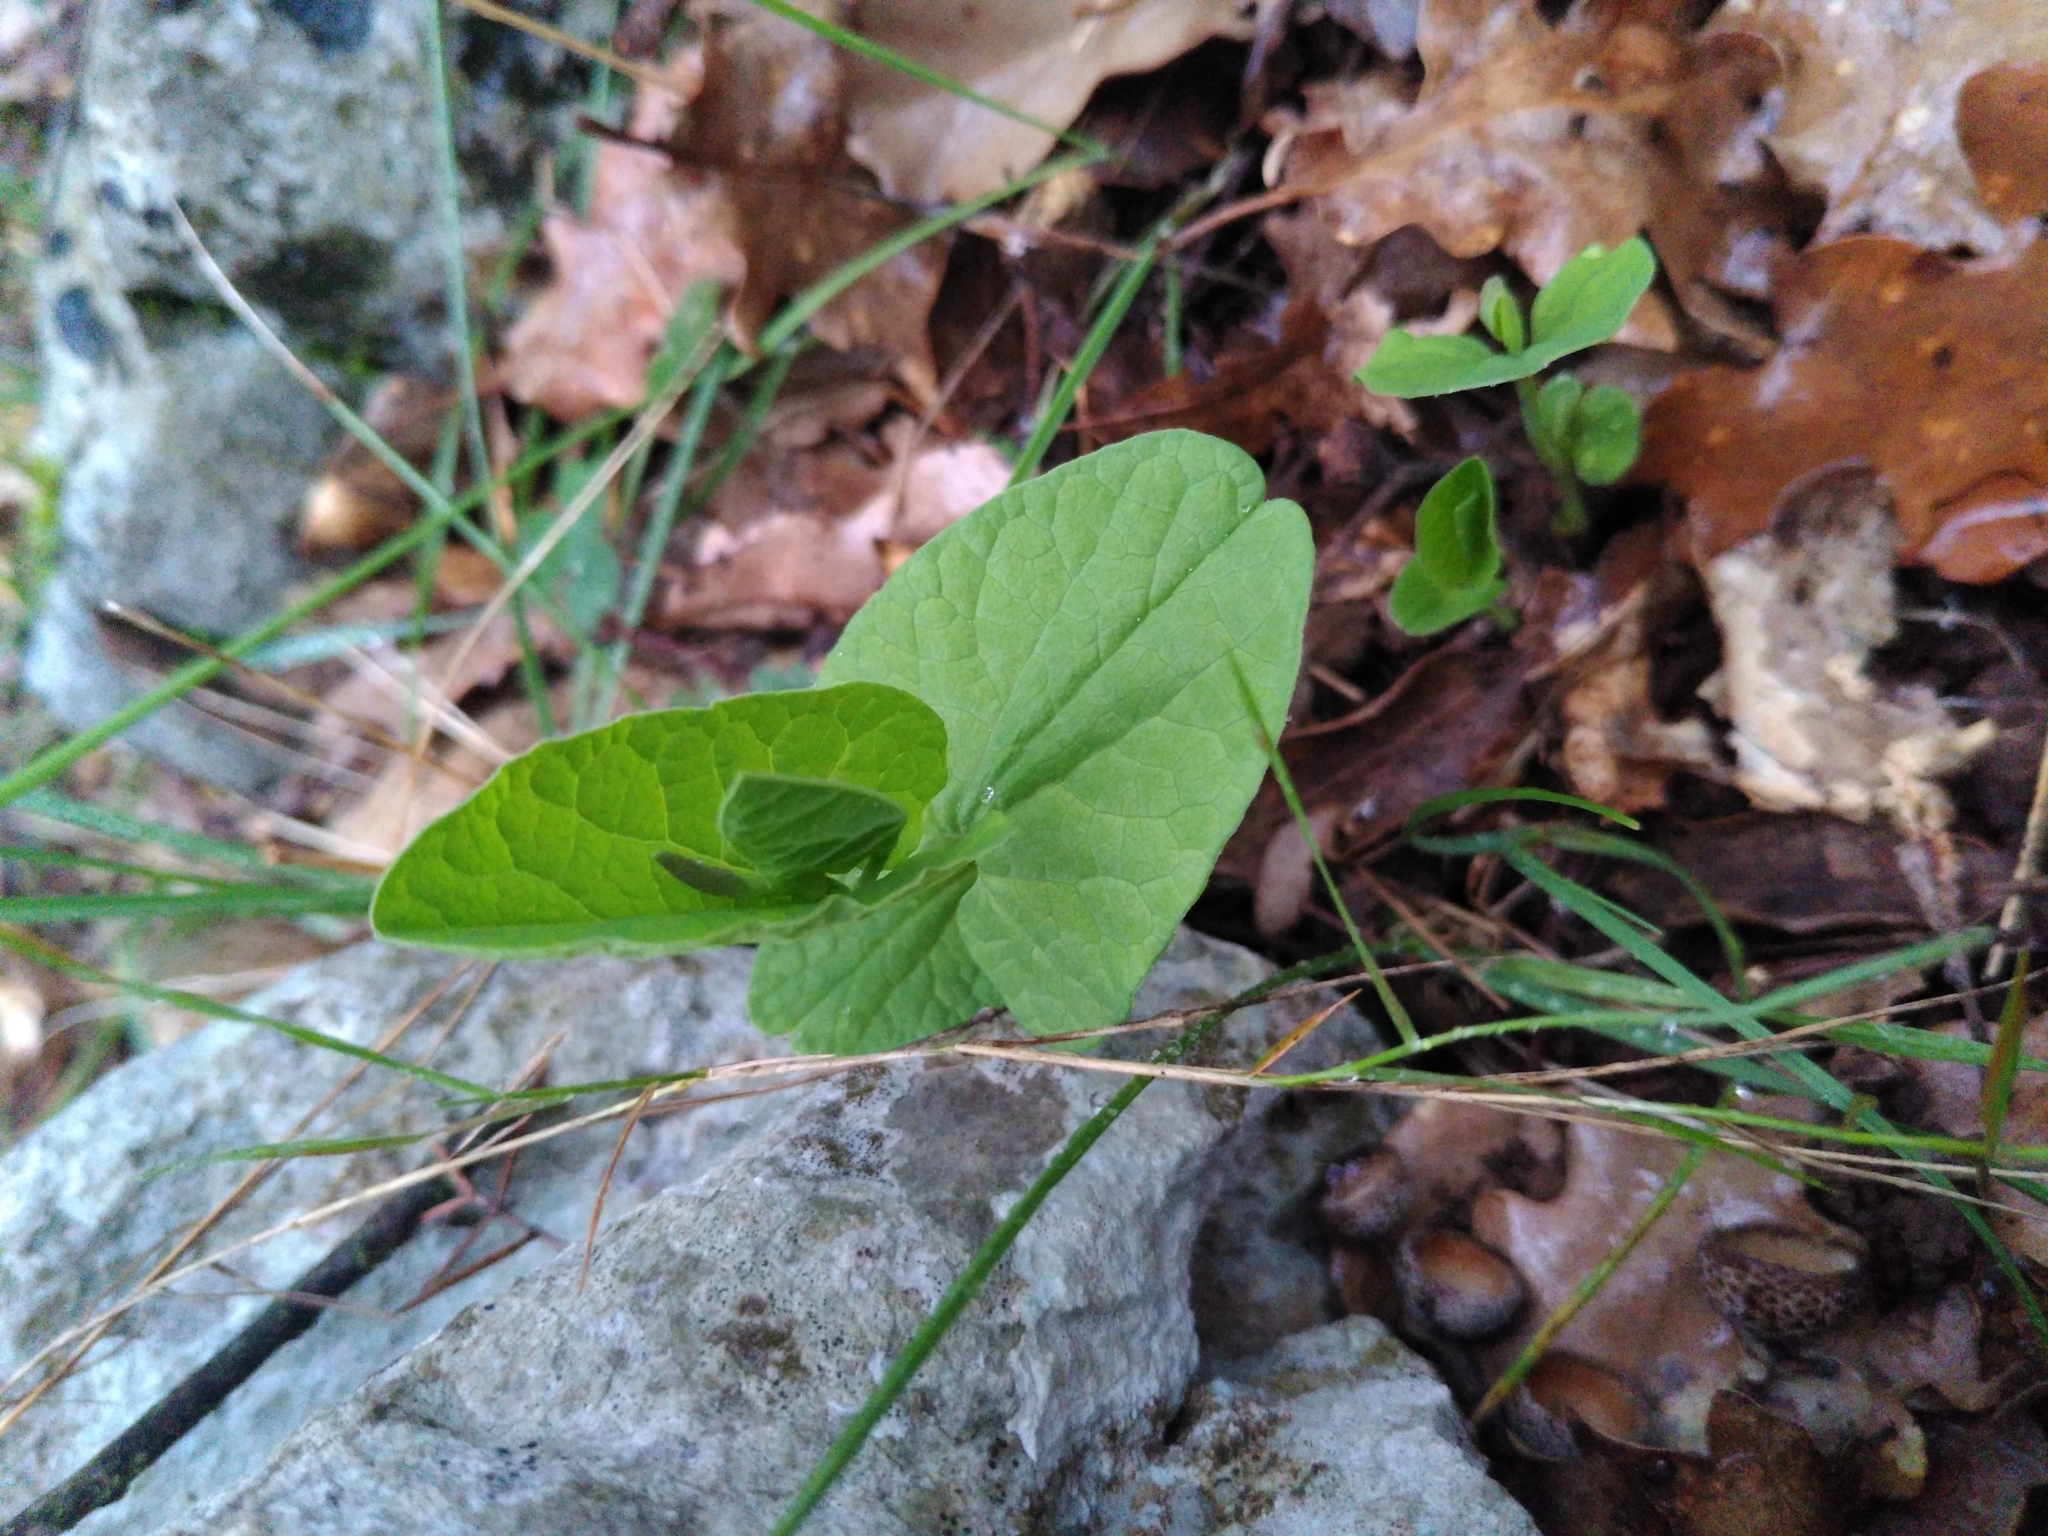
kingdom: Plantae
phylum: Tracheophyta
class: Magnoliopsida
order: Piperales
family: Aristolochiaceae
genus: Aristolochia
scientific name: Aristolochia rotunda
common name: Smearwort
